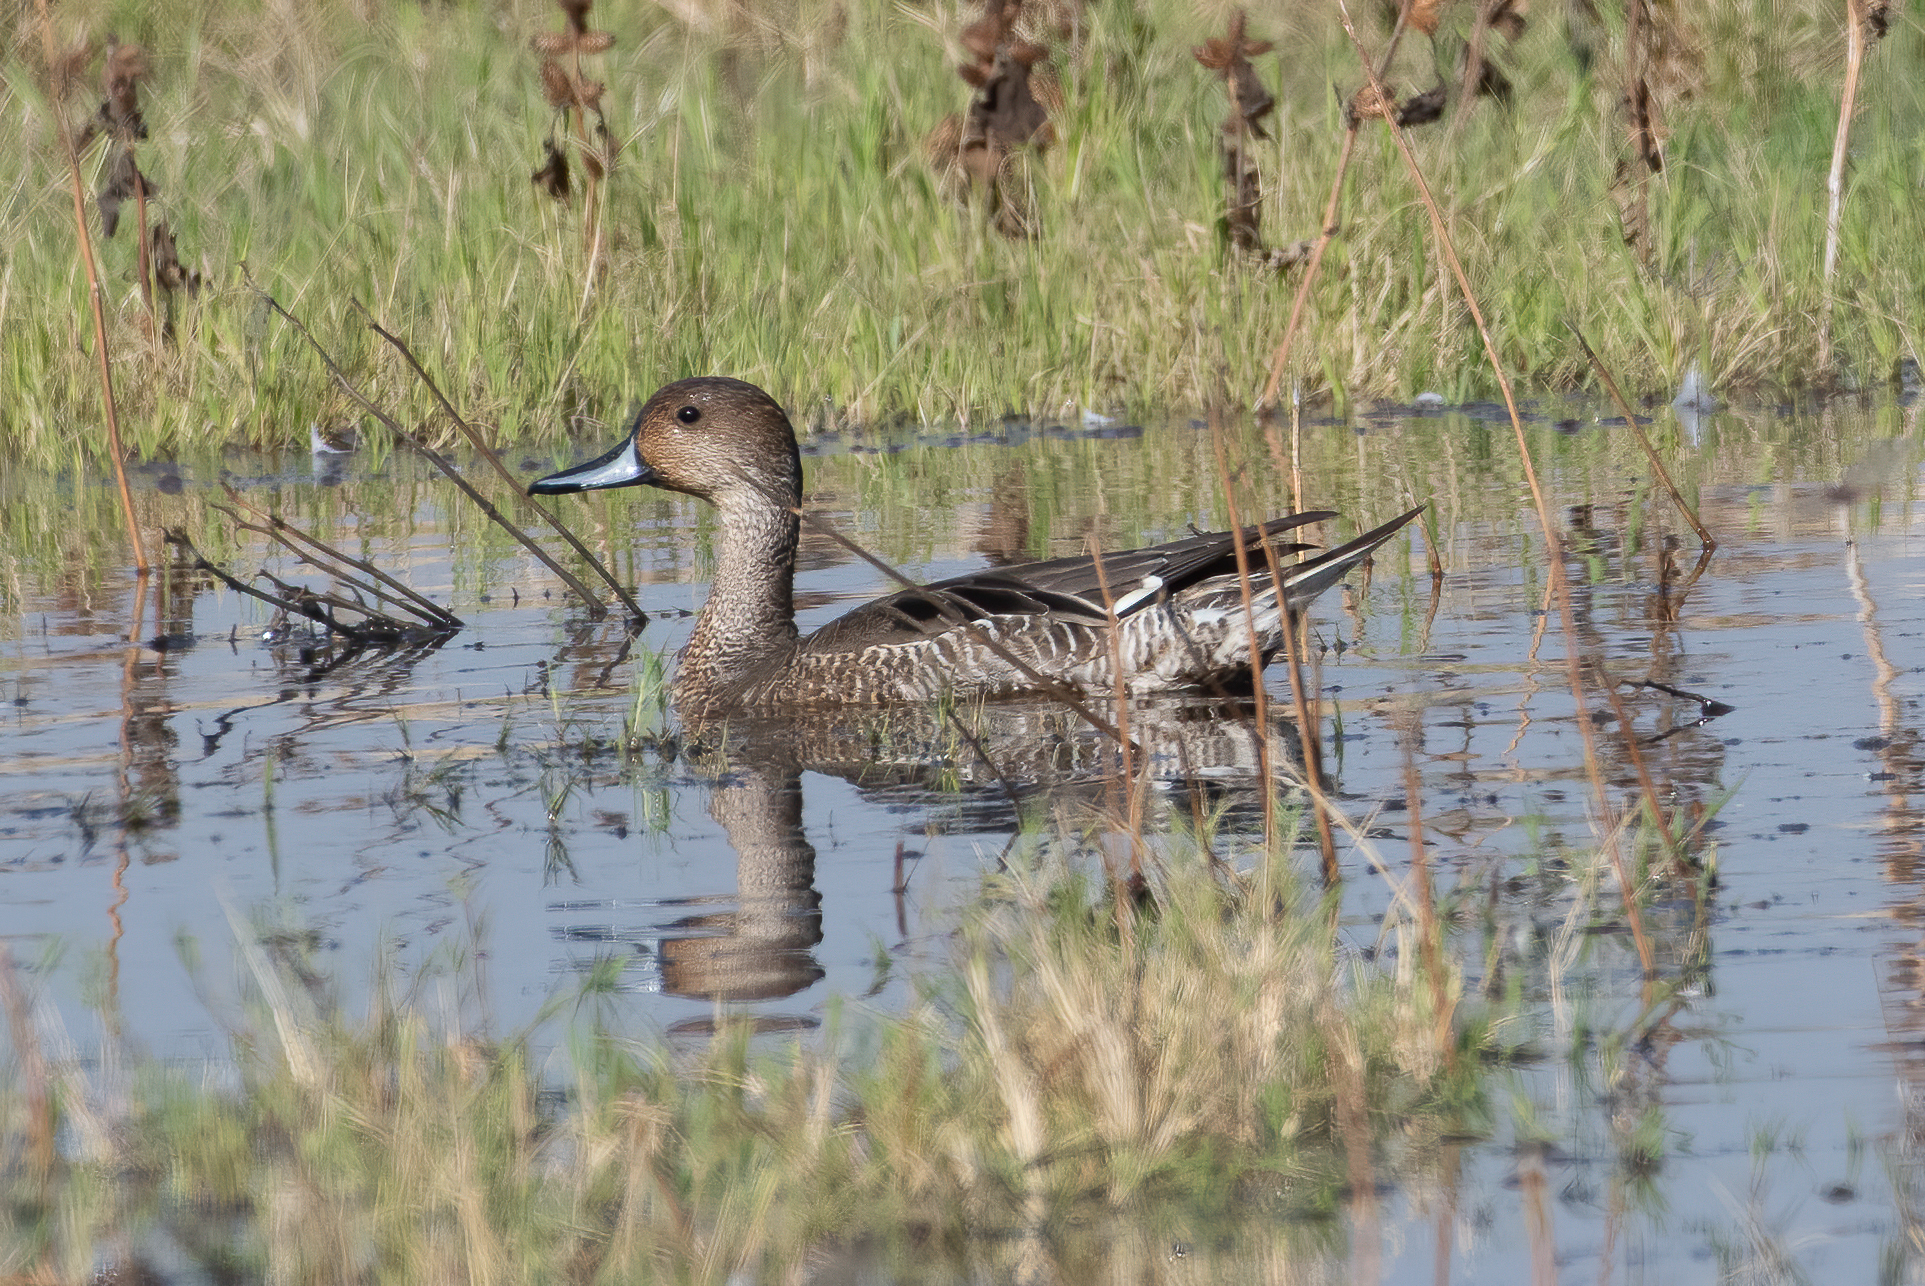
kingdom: Animalia
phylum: Chordata
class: Aves
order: Anseriformes
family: Anatidae
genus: Anas
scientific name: Anas acuta
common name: Northern pintail
